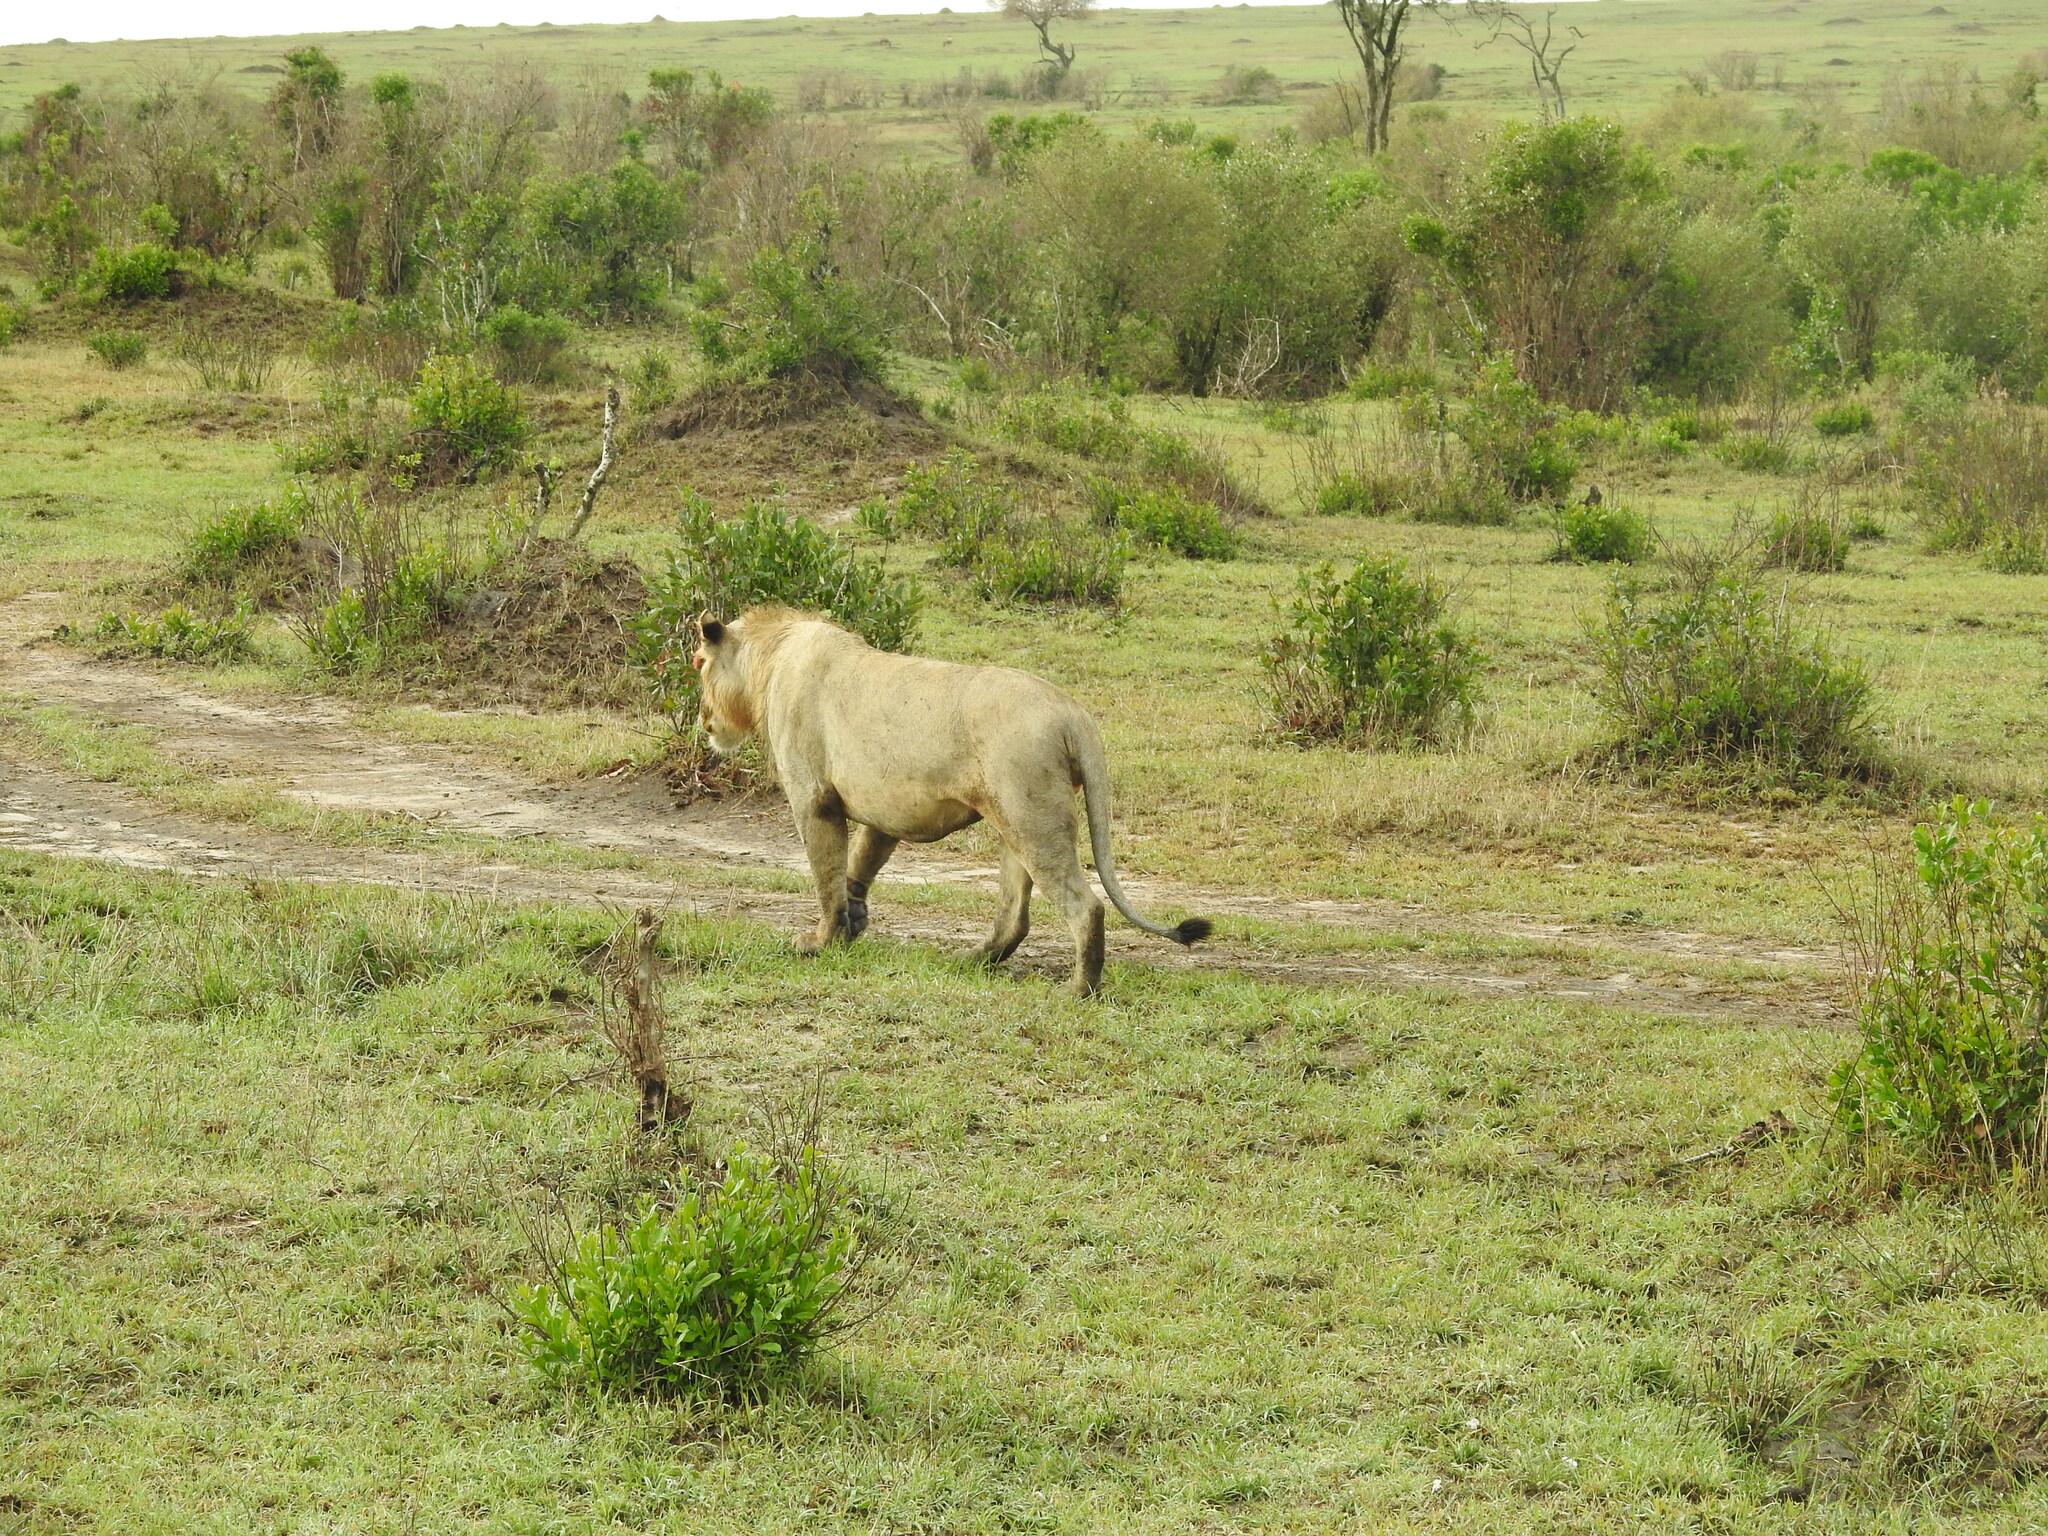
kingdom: Animalia
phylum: Chordata
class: Mammalia
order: Carnivora
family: Felidae
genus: Panthera
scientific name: Panthera leo
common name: Lion
